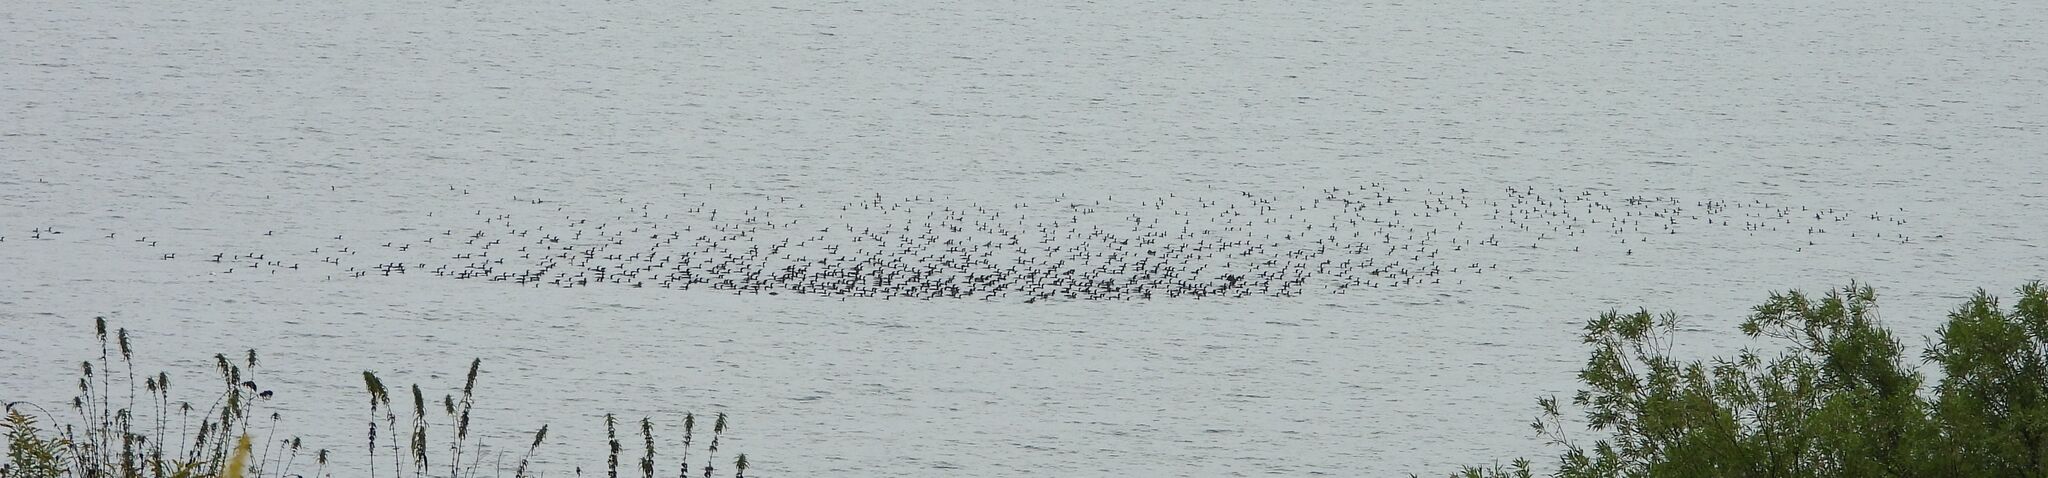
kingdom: Animalia
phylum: Chordata
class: Aves
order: Suliformes
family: Phalacrocoracidae
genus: Phalacrocorax
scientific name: Phalacrocorax auritus
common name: Double-crested cormorant
